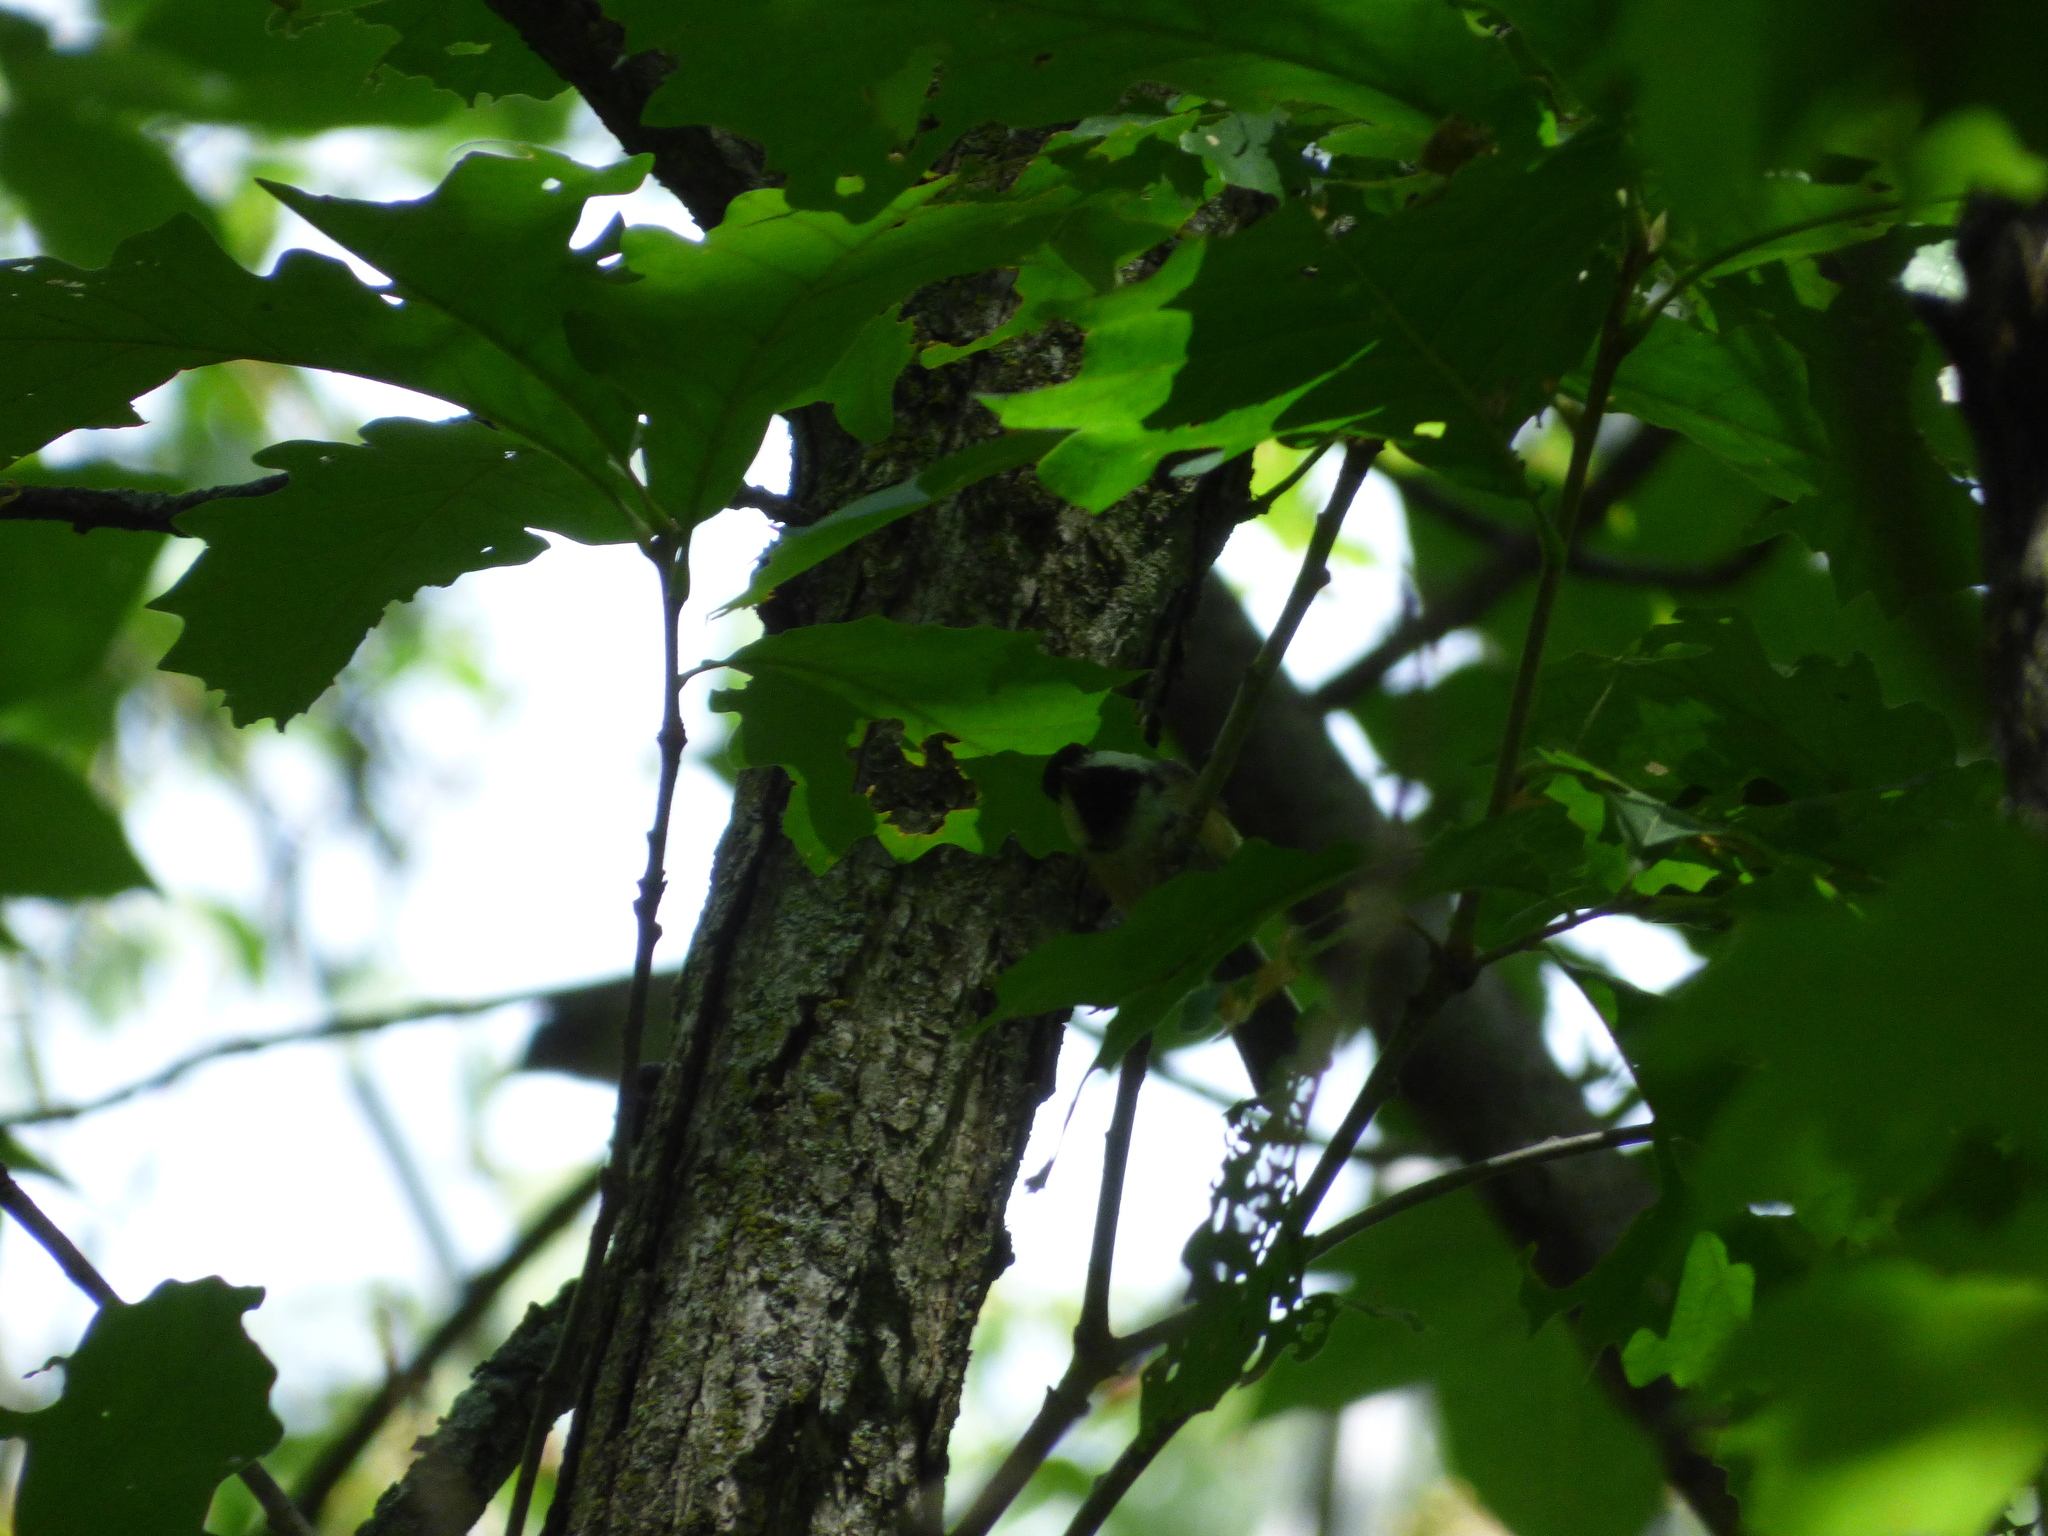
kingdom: Animalia
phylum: Chordata
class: Aves
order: Passeriformes
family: Paridae
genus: Poecile
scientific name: Poecile atricapillus
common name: Black-capped chickadee
